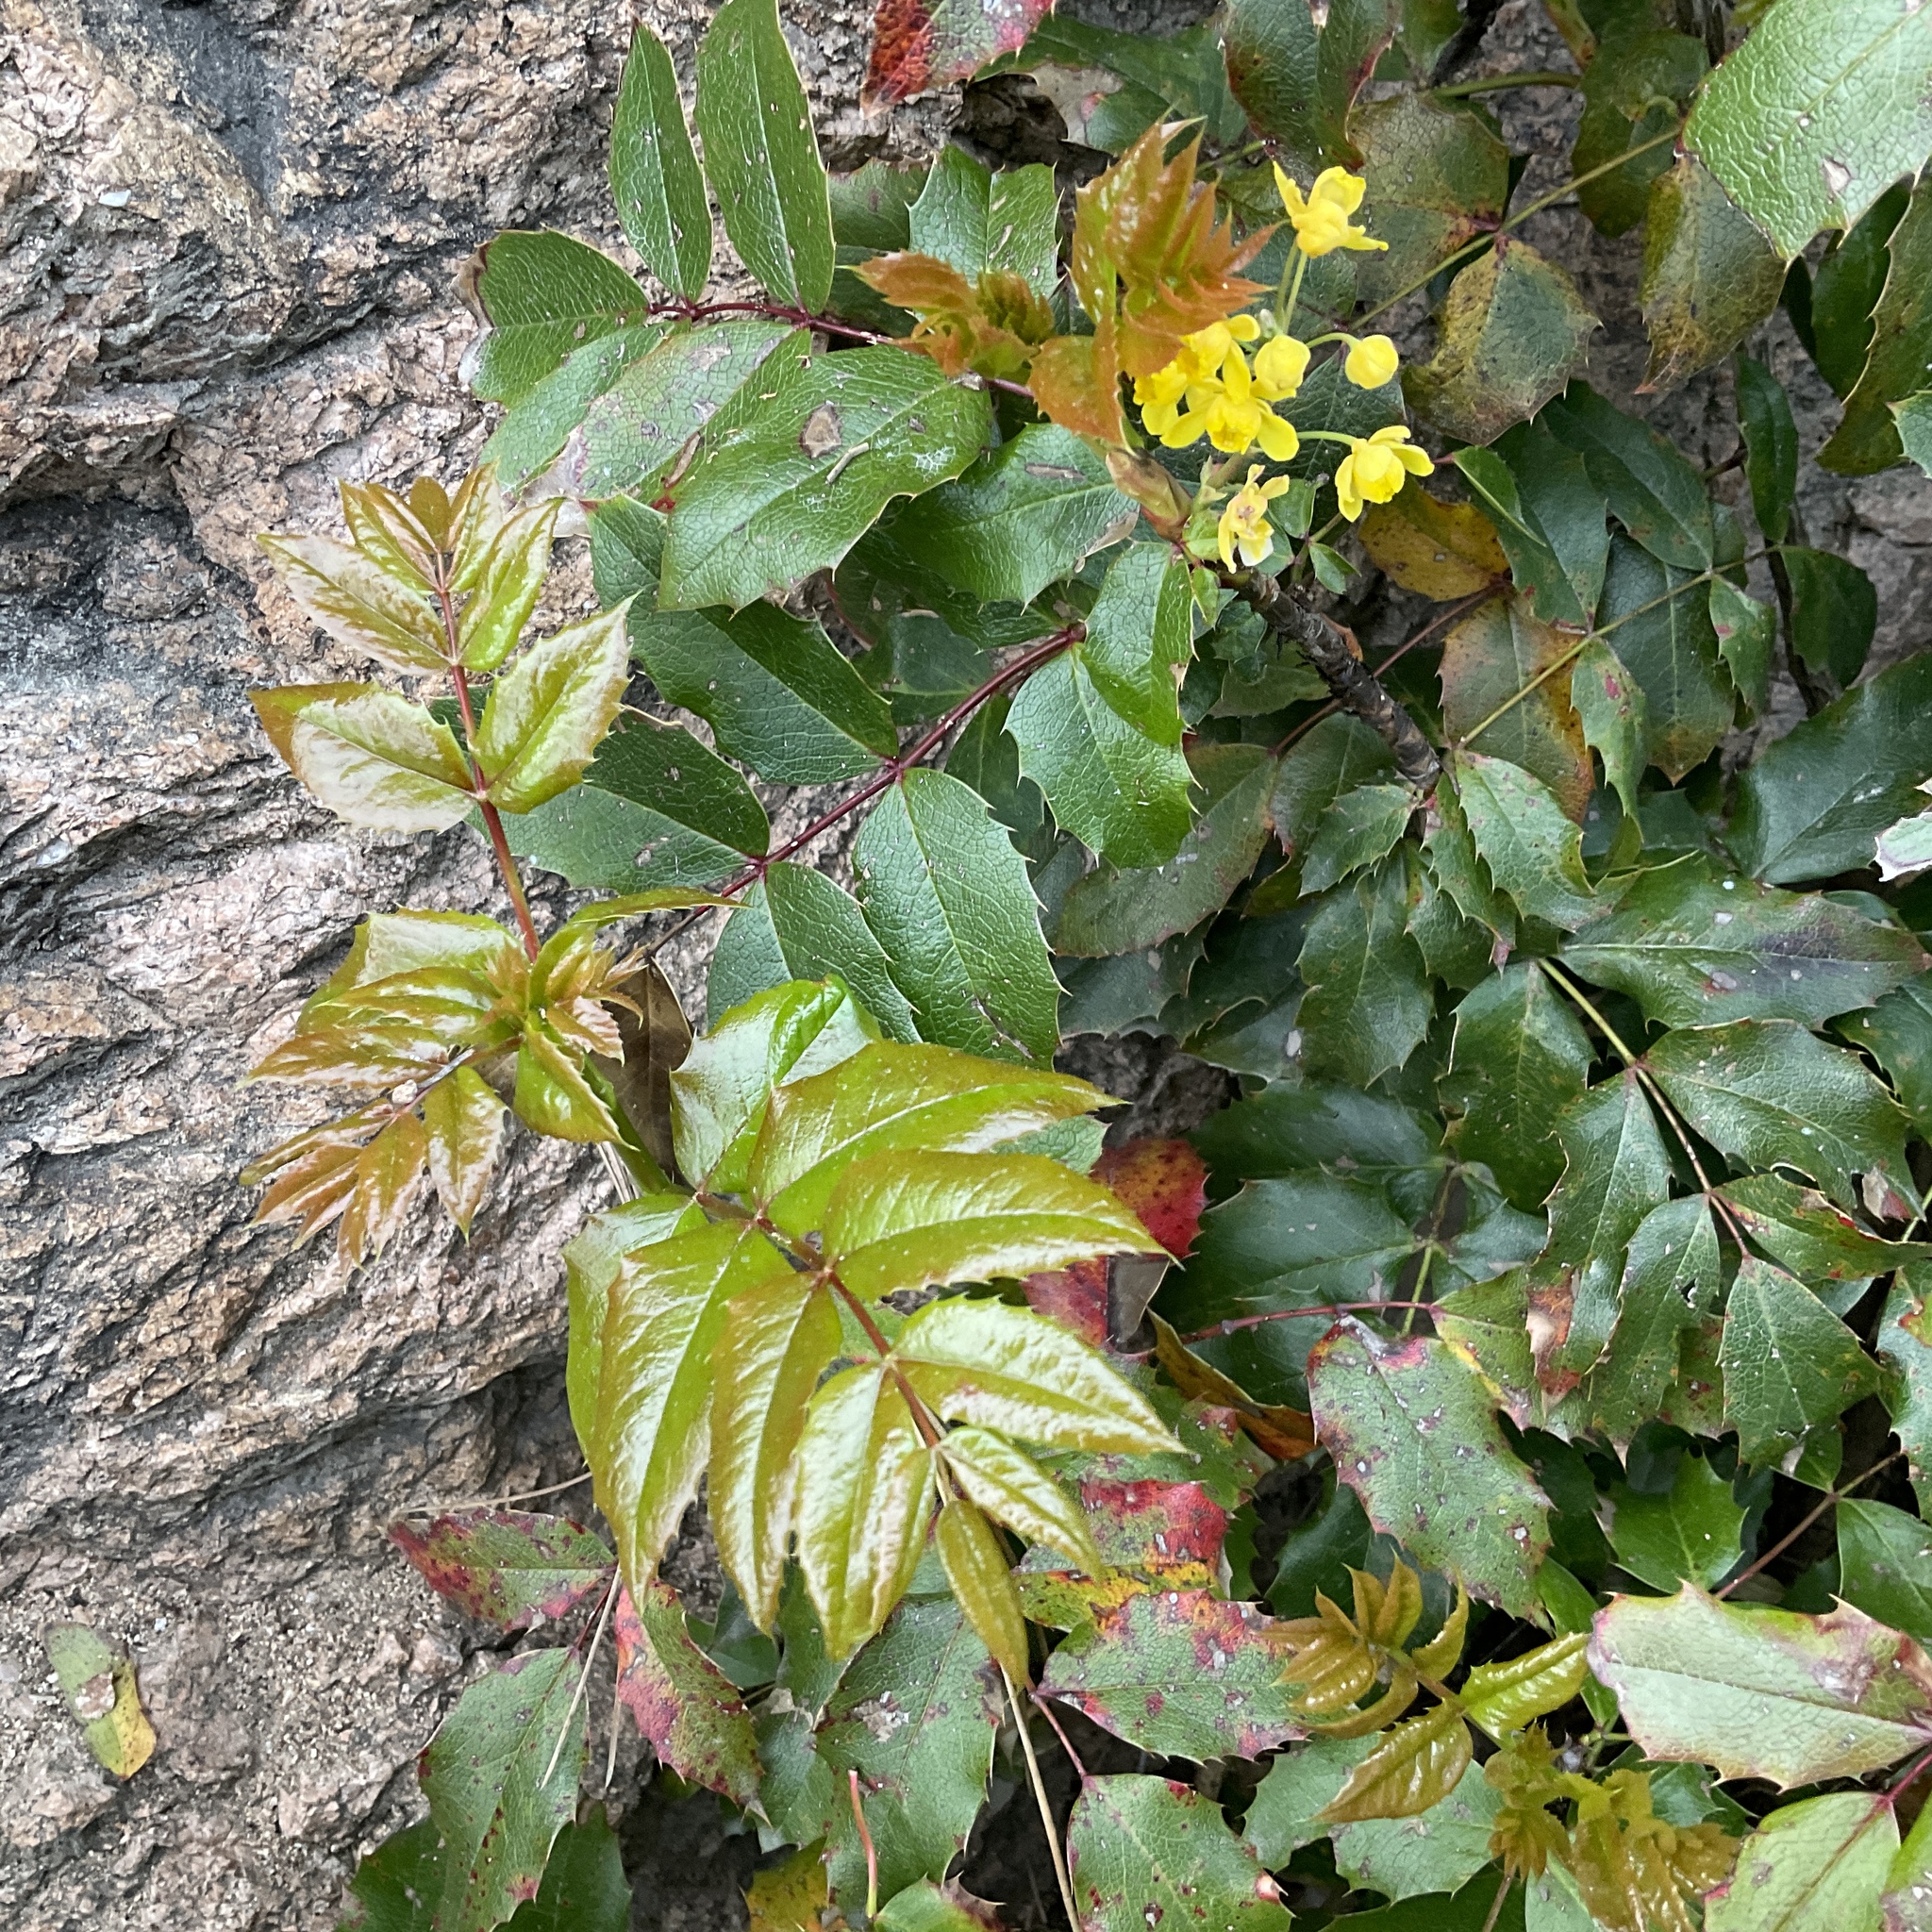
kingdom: Plantae
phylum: Tracheophyta
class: Magnoliopsida
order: Ranunculales
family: Berberidaceae
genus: Mahonia
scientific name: Mahonia aquifolium
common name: Oregon-grape
